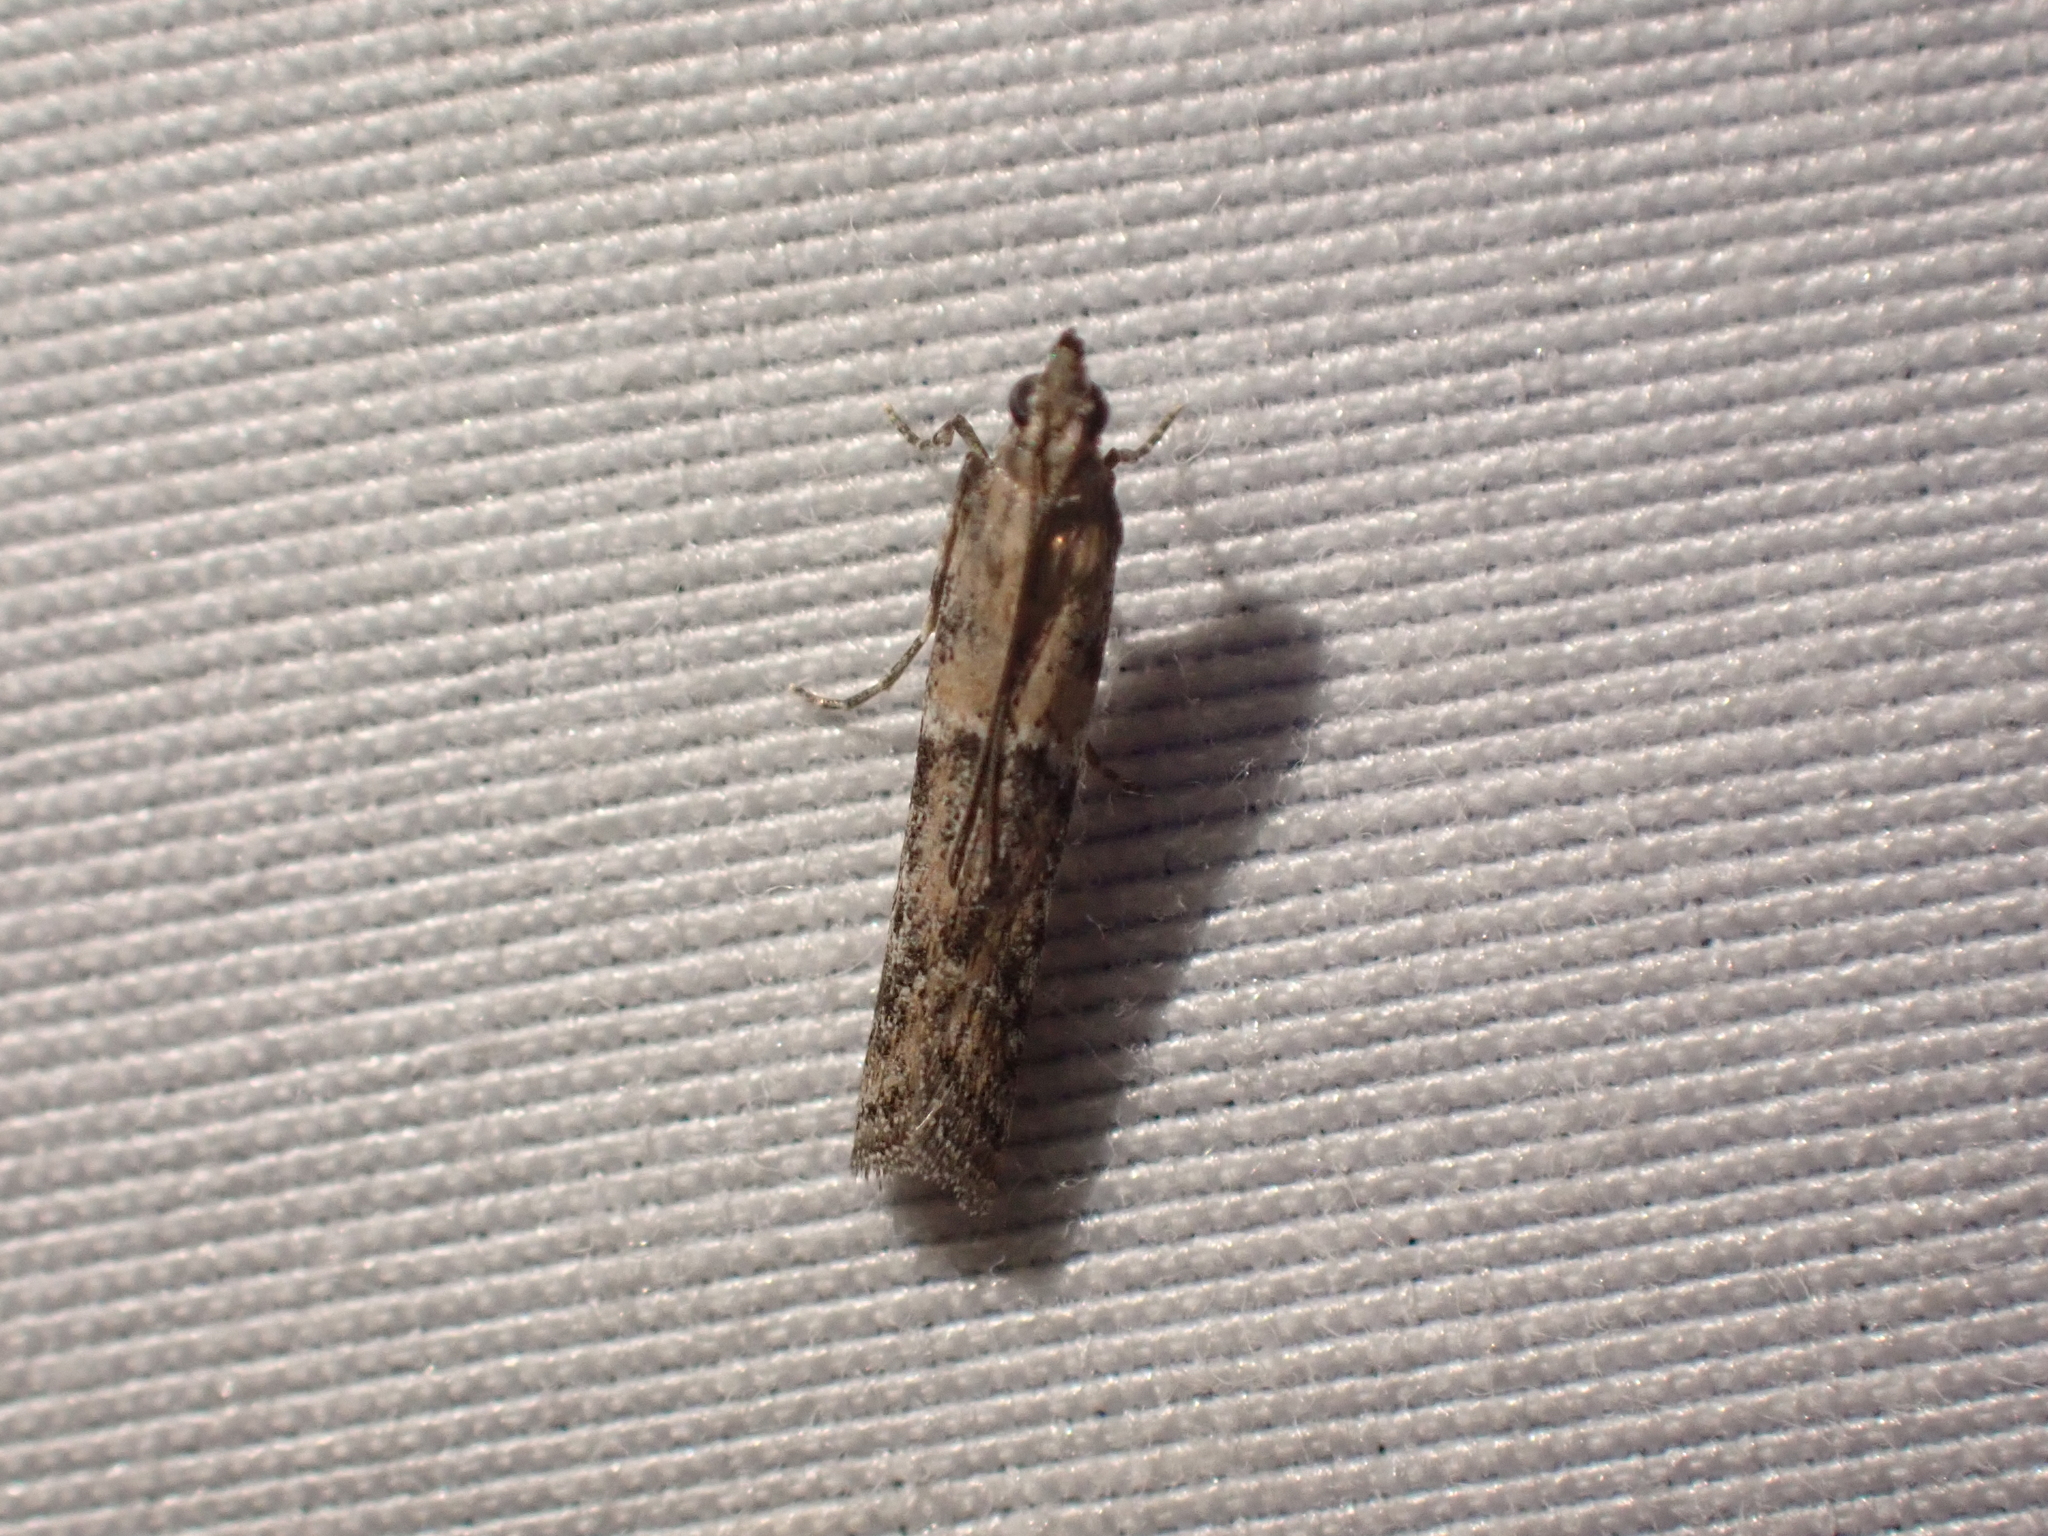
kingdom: Animalia
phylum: Arthropoda
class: Insecta
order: Lepidoptera
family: Pyralidae
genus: Ephestiodes
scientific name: Ephestiodes gilvescentella
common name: Moth
